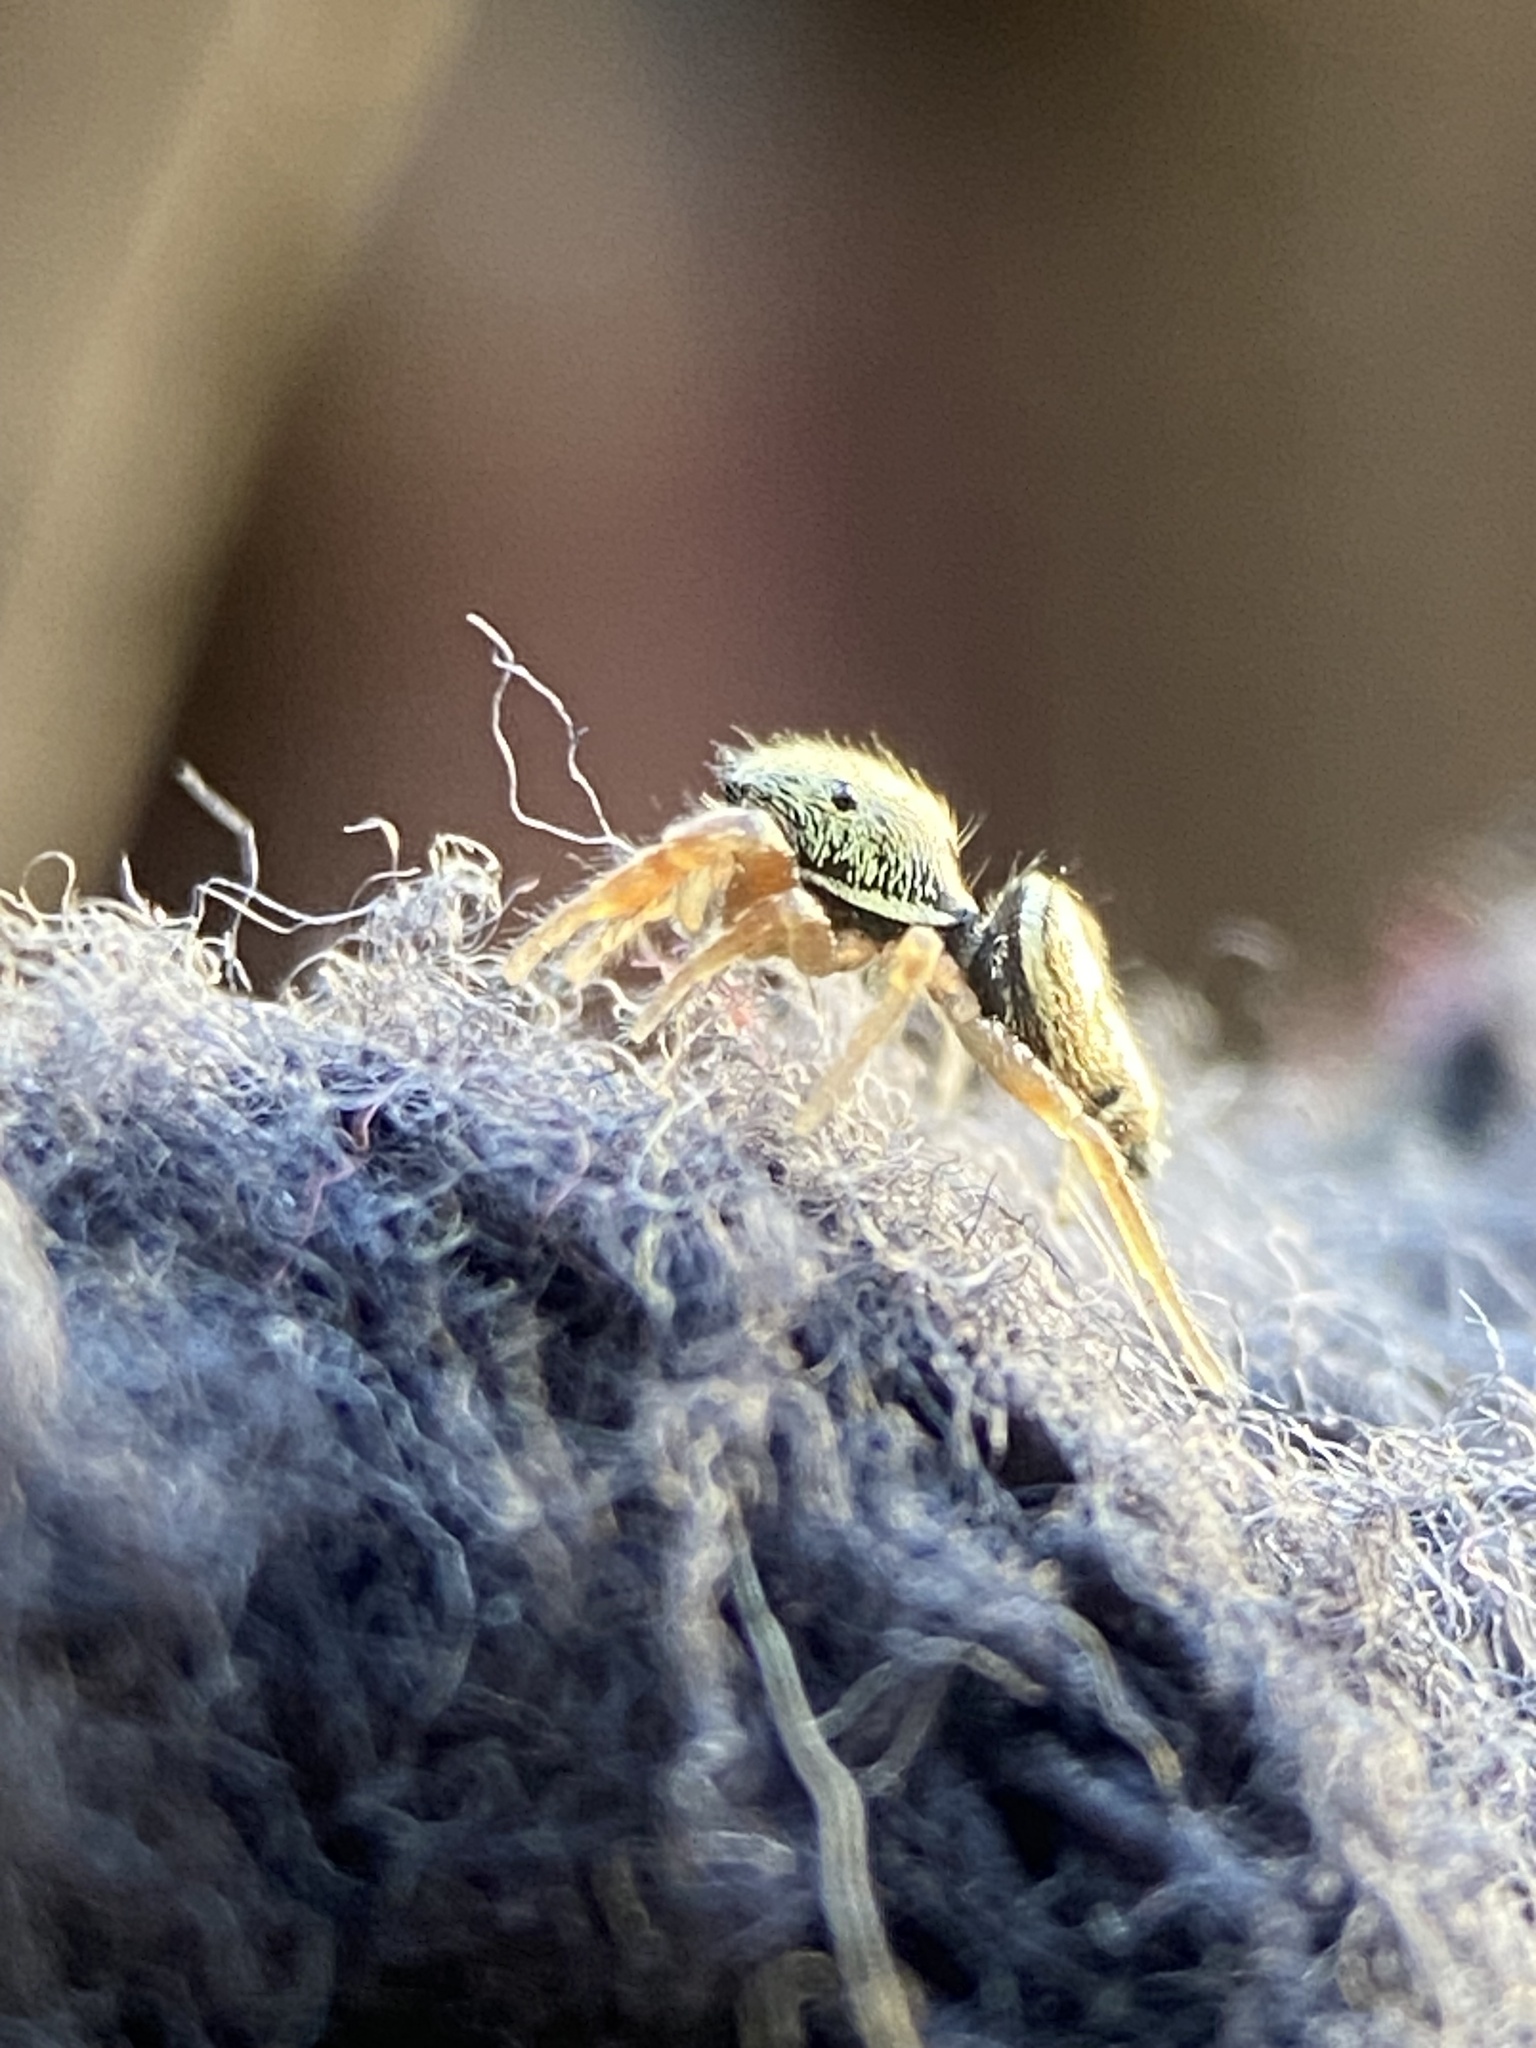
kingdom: Animalia
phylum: Arthropoda
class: Arachnida
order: Araneae
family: Salticidae
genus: Sassacus
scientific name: Sassacus vitis
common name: Jumping spiders
